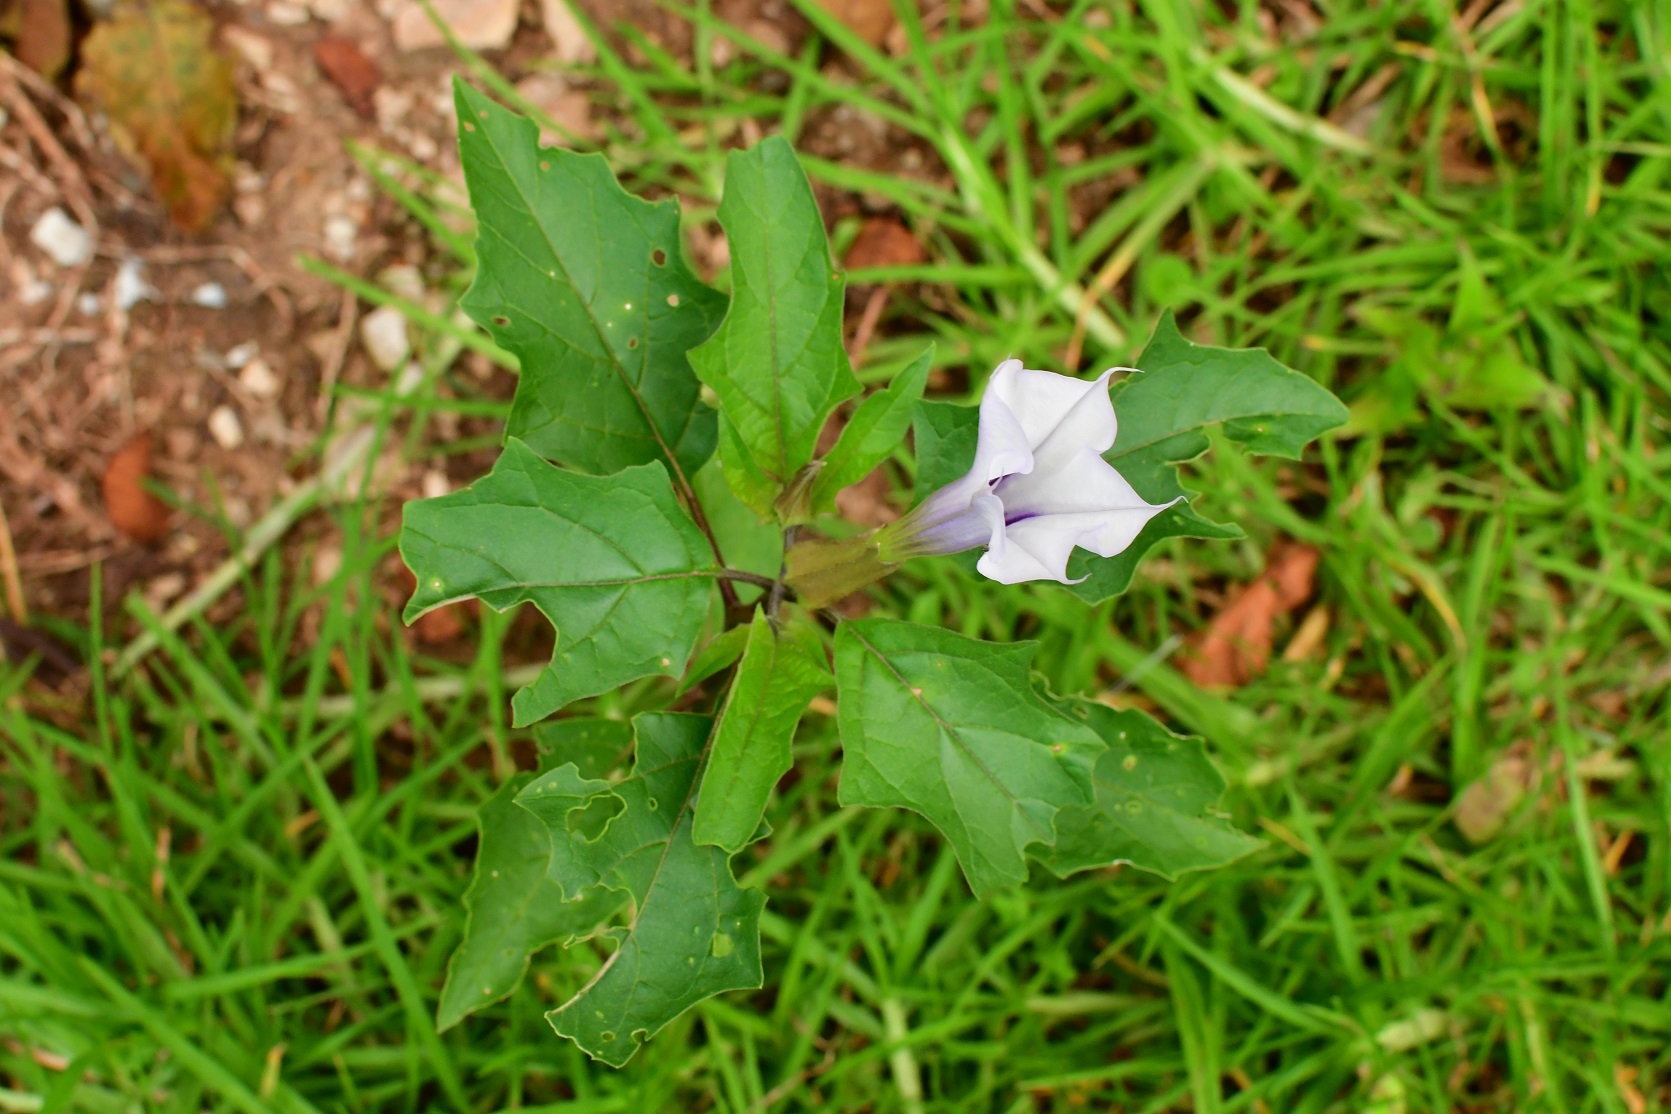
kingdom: Plantae
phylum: Tracheophyta
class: Magnoliopsida
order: Solanales
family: Solanaceae
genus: Datura
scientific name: Datura stramonium
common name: Thorn-apple
